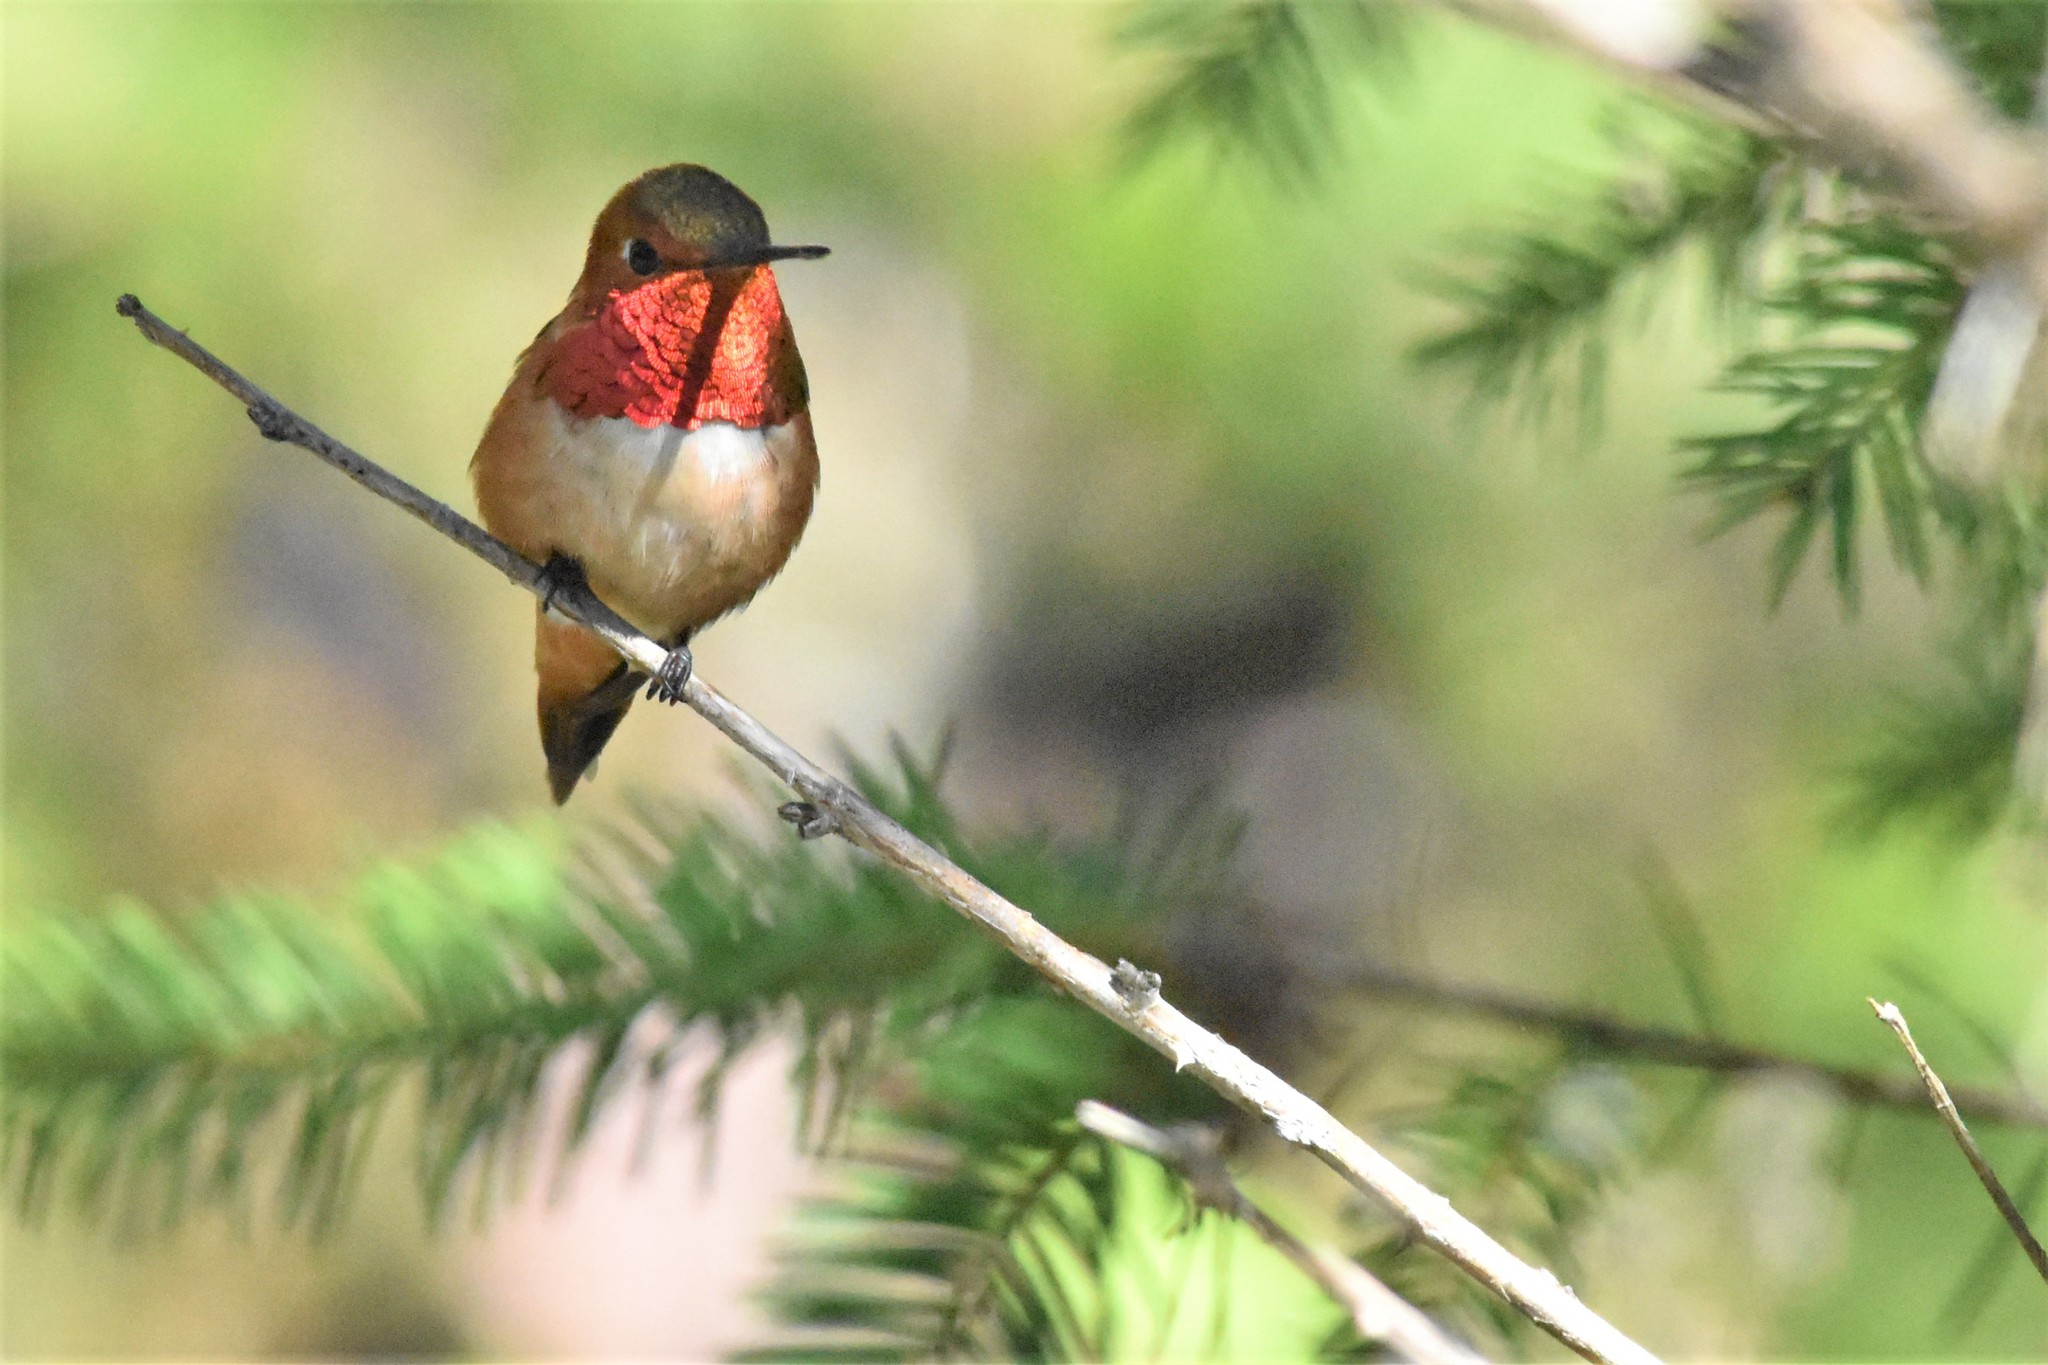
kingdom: Animalia
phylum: Chordata
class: Aves
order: Apodiformes
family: Trochilidae
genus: Selasphorus
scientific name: Selasphorus rufus
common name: Rufous hummingbird
